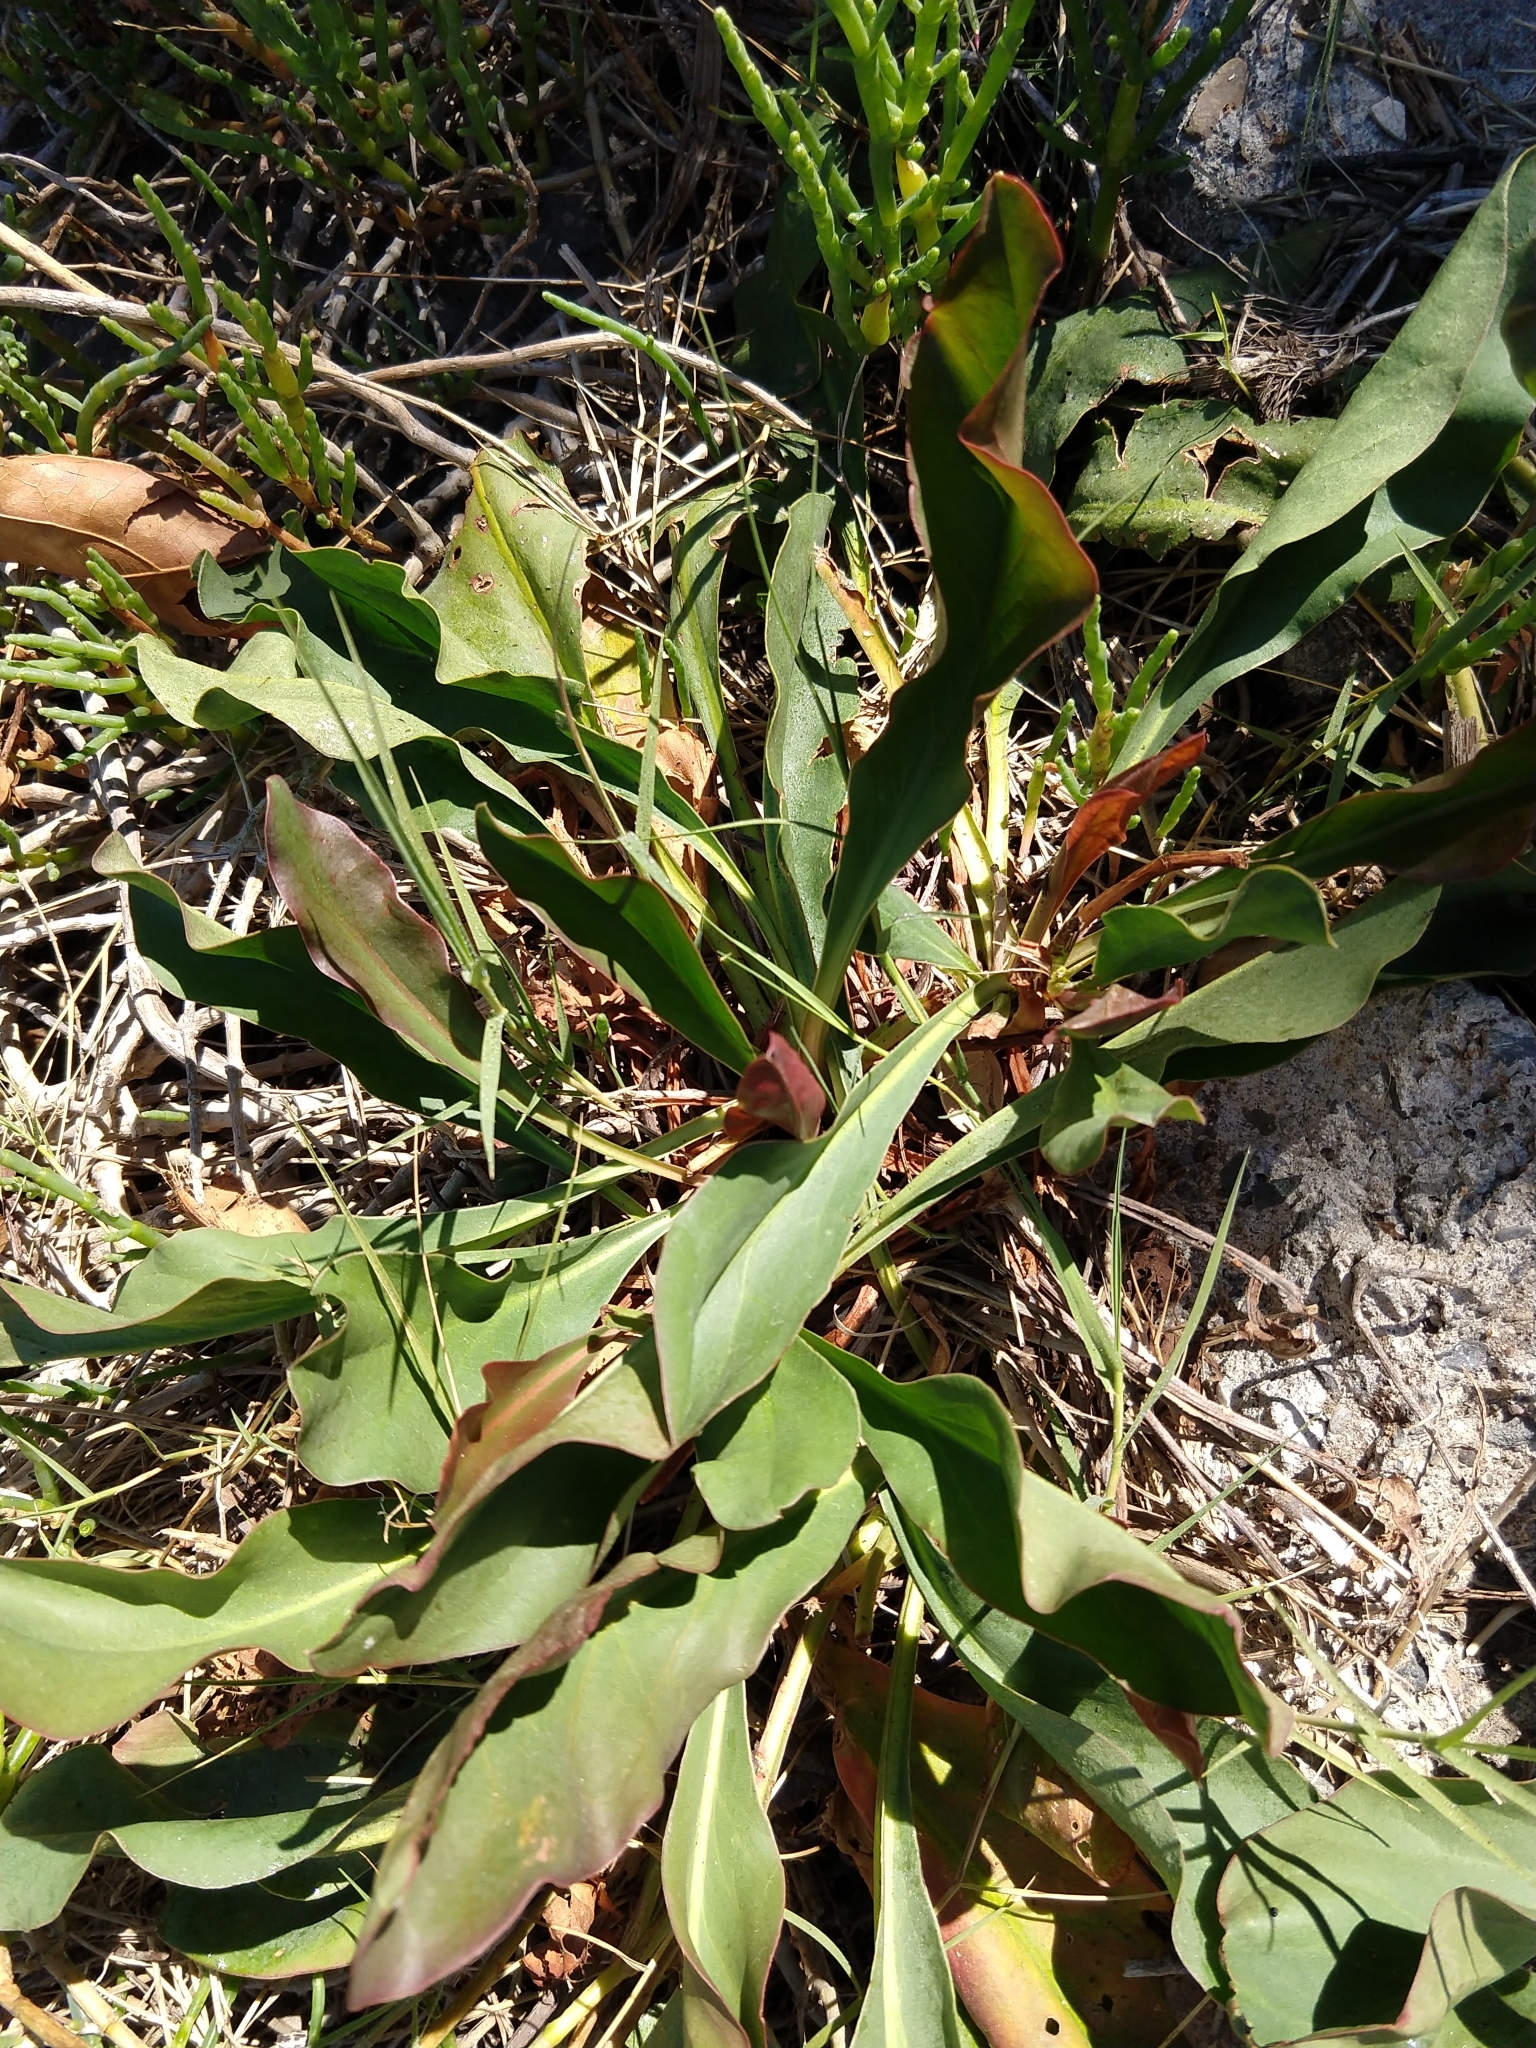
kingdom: Plantae
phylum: Tracheophyta
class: Magnoliopsida
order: Caryophyllales
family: Plumbaginaceae
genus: Limonium
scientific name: Limonium californicum
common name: Marsh-rosemary
